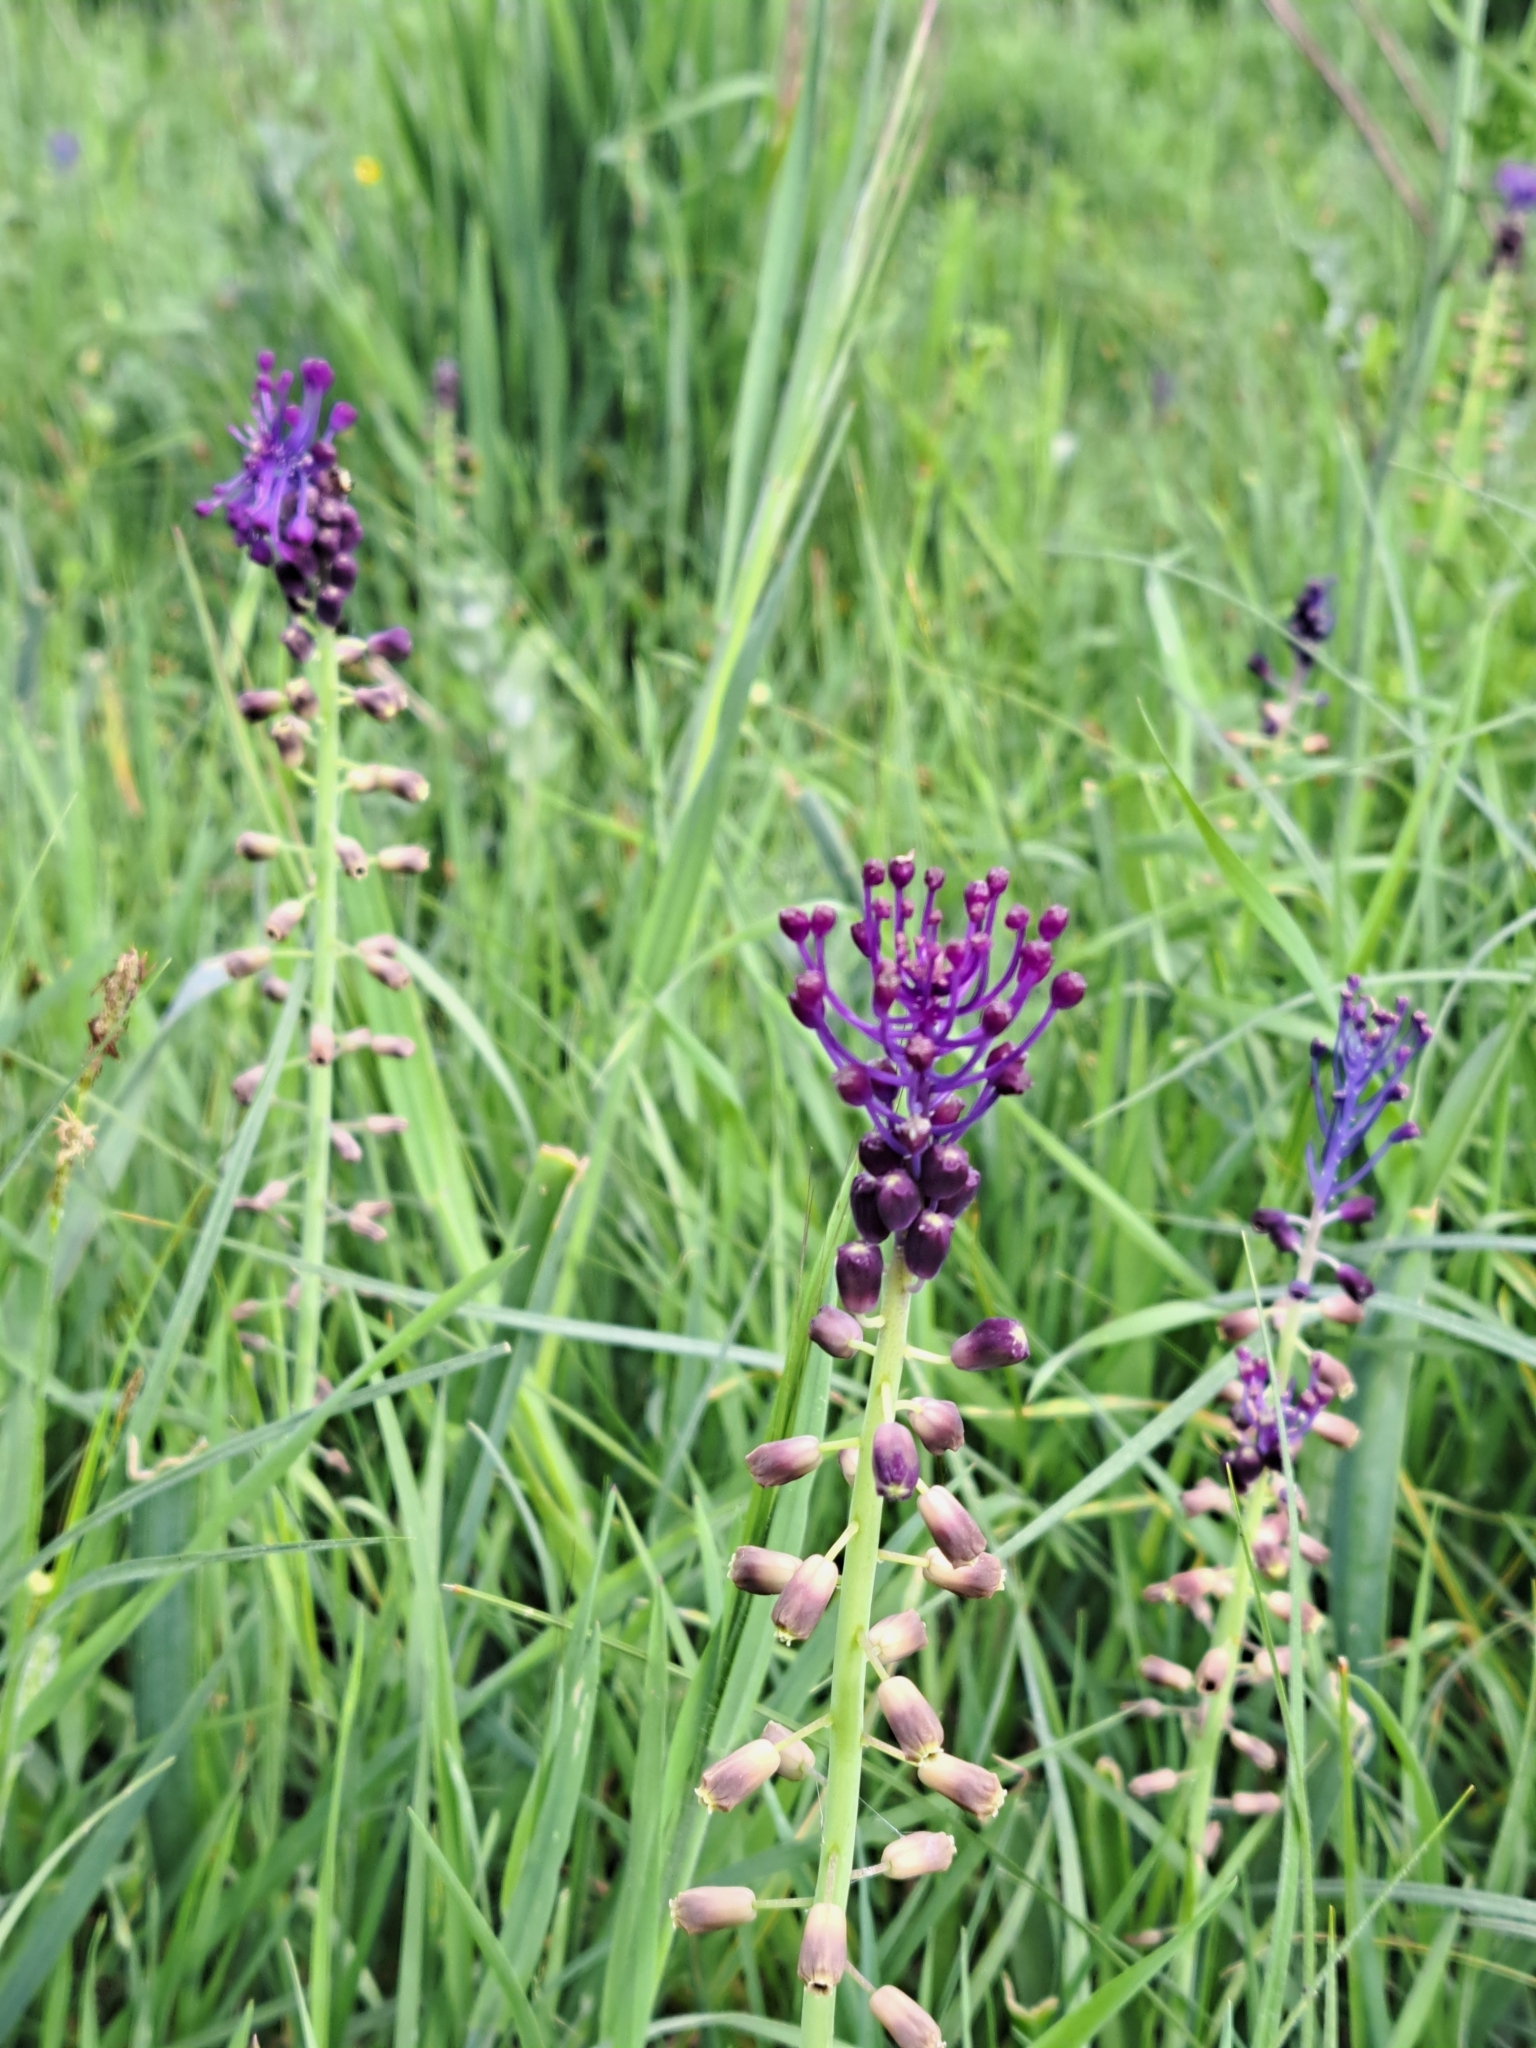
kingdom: Plantae
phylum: Tracheophyta
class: Liliopsida
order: Asparagales
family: Asparagaceae
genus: Muscari
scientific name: Muscari comosum
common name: Tassel hyacinth
